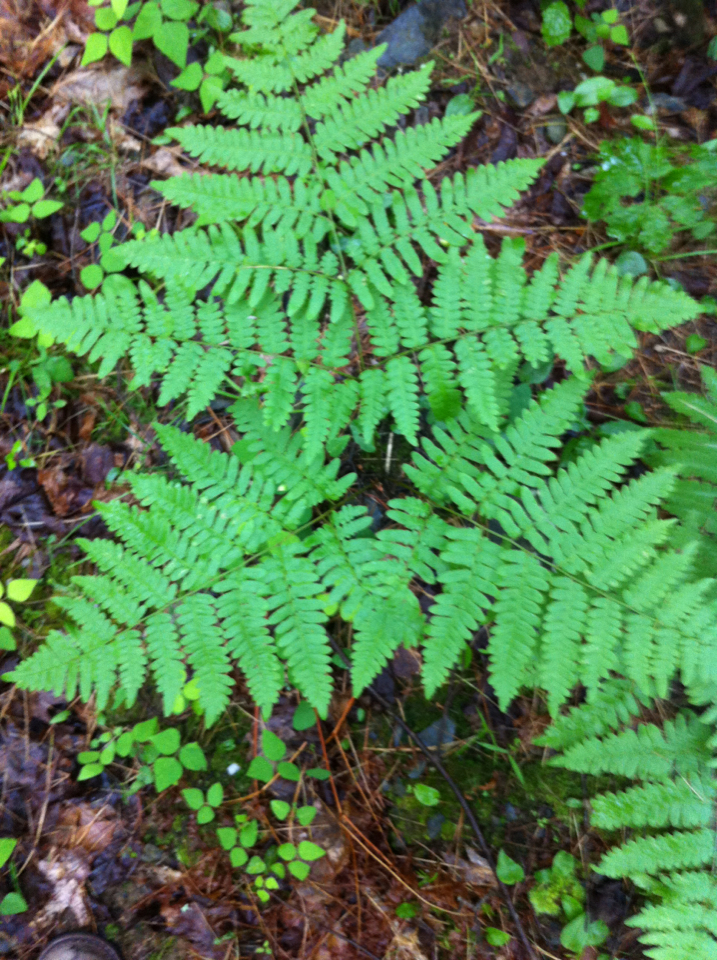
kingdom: Plantae
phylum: Tracheophyta
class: Polypodiopsida
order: Polypodiales
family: Dennstaedtiaceae
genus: Pteridium
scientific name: Pteridium aquilinum
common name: Bracken
